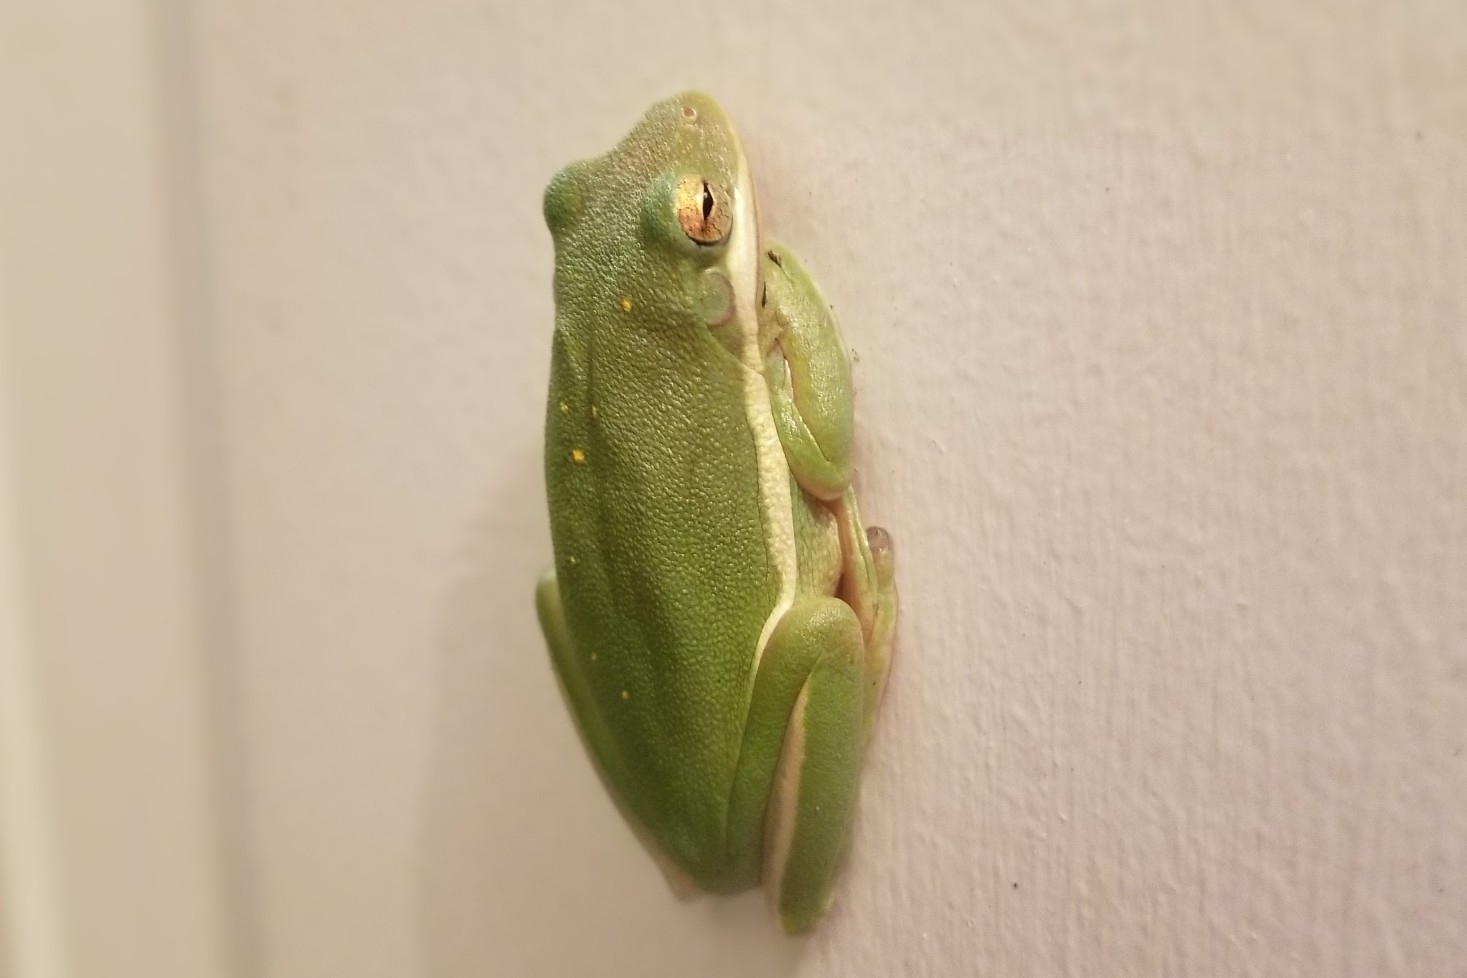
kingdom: Animalia
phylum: Chordata
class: Amphibia
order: Anura
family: Hylidae
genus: Dryophytes
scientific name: Dryophytes cinereus
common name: Green treefrog
